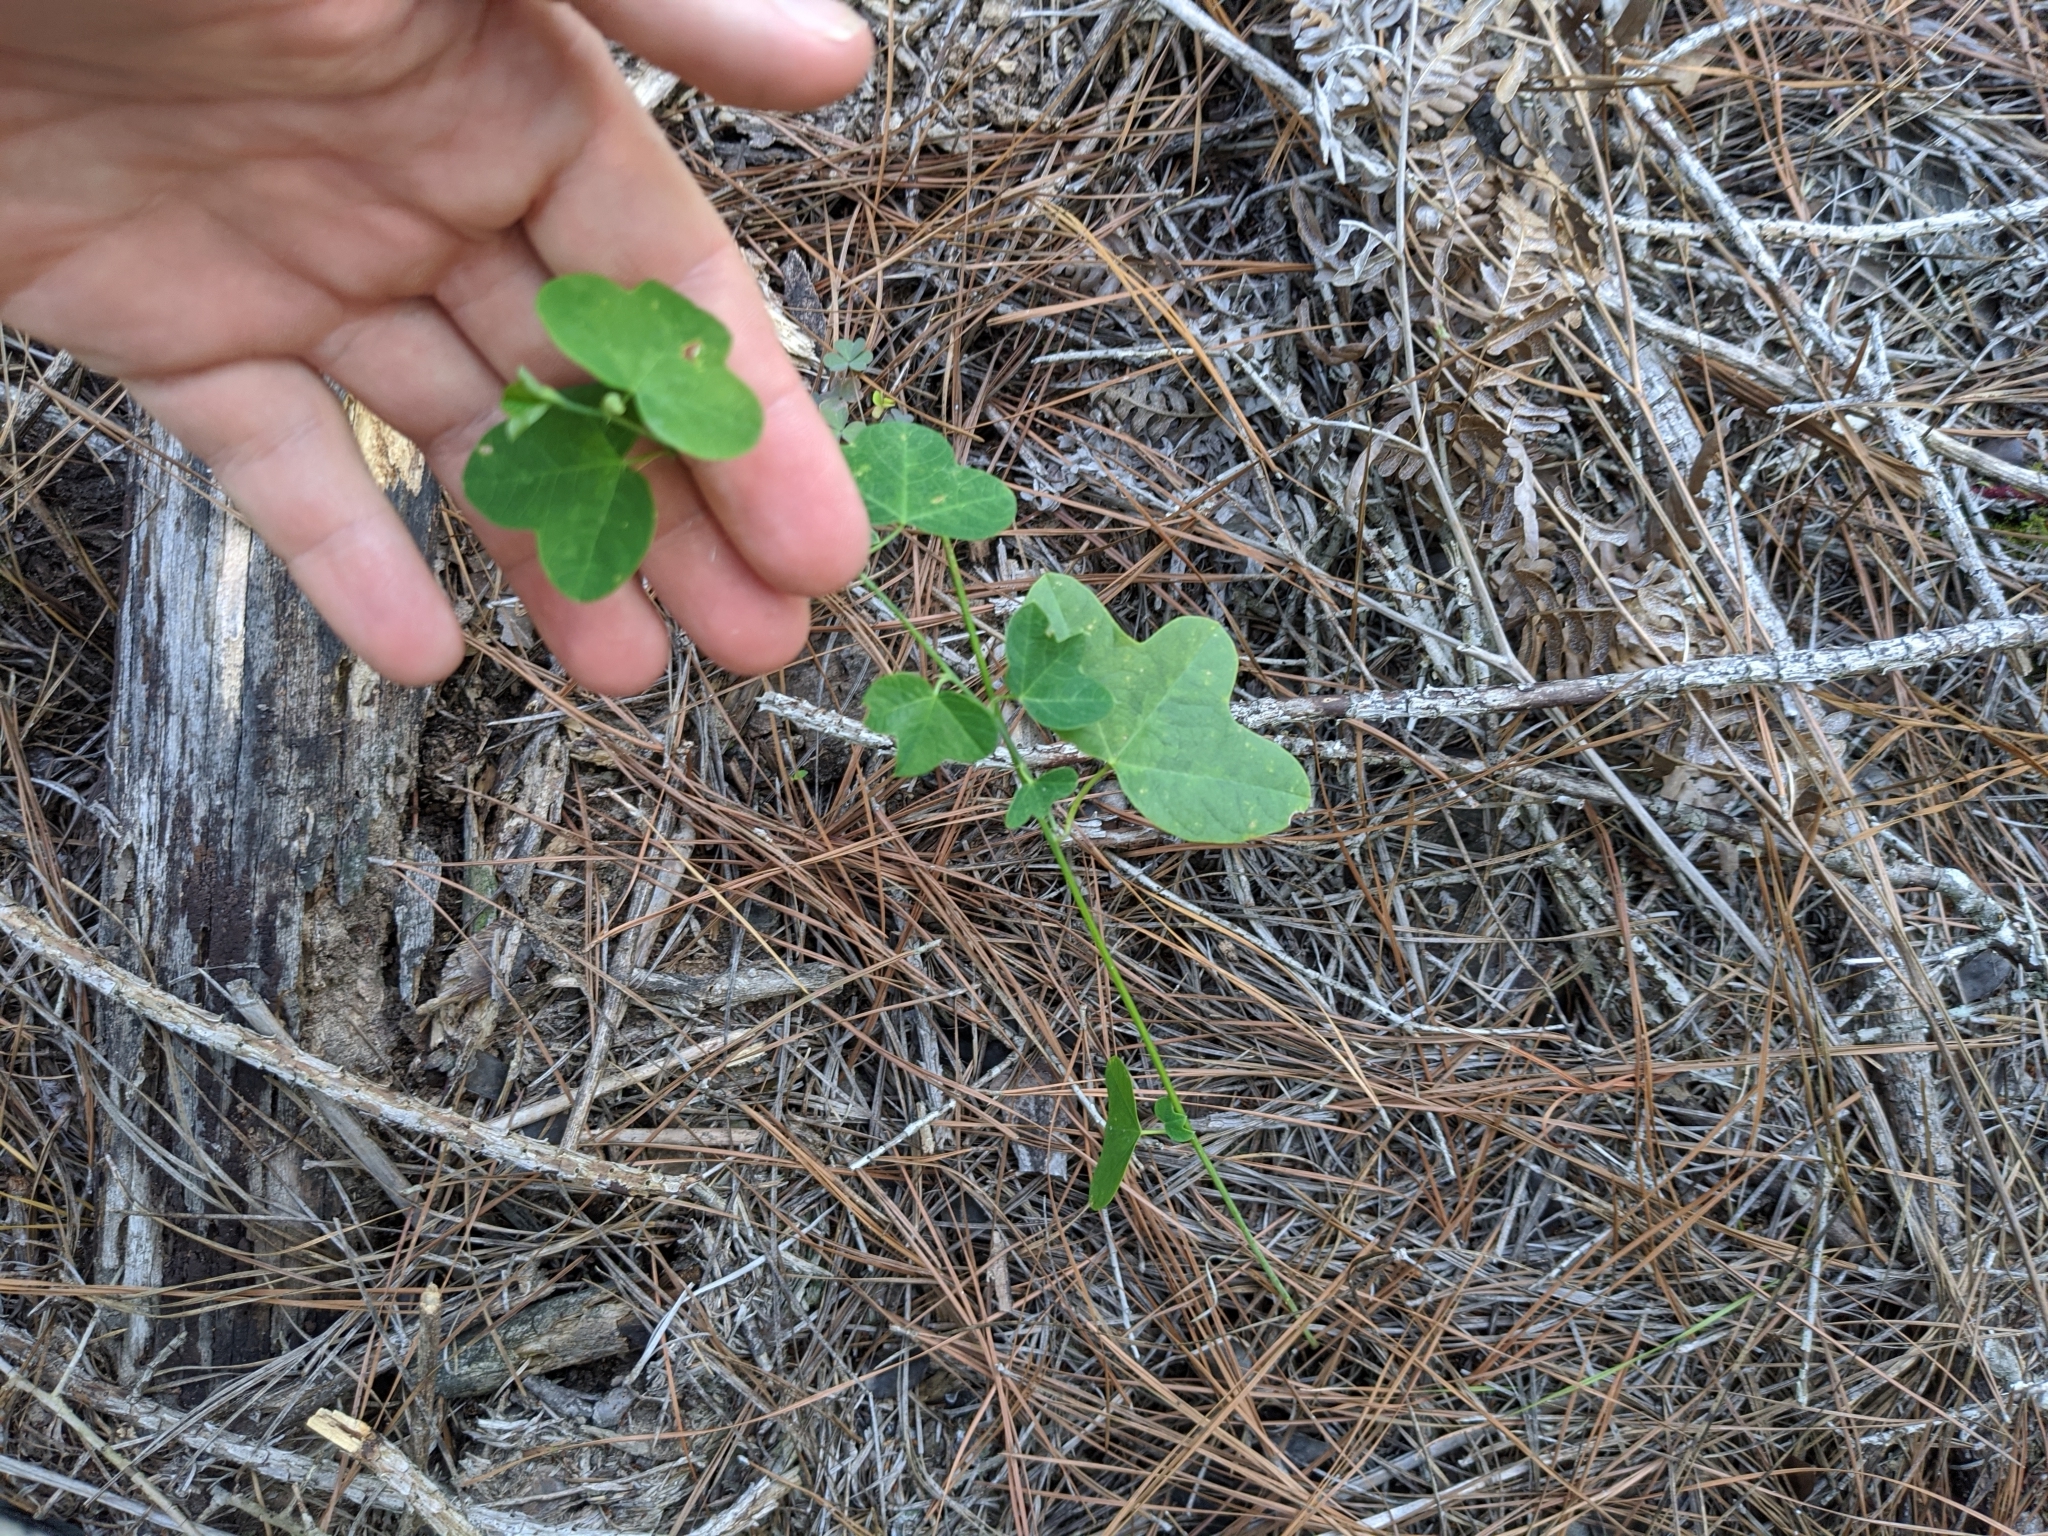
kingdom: Plantae
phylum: Tracheophyta
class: Magnoliopsida
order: Malpighiales
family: Passifloraceae
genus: Passiflora
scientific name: Passiflora lutea
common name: Yellow passionflower
